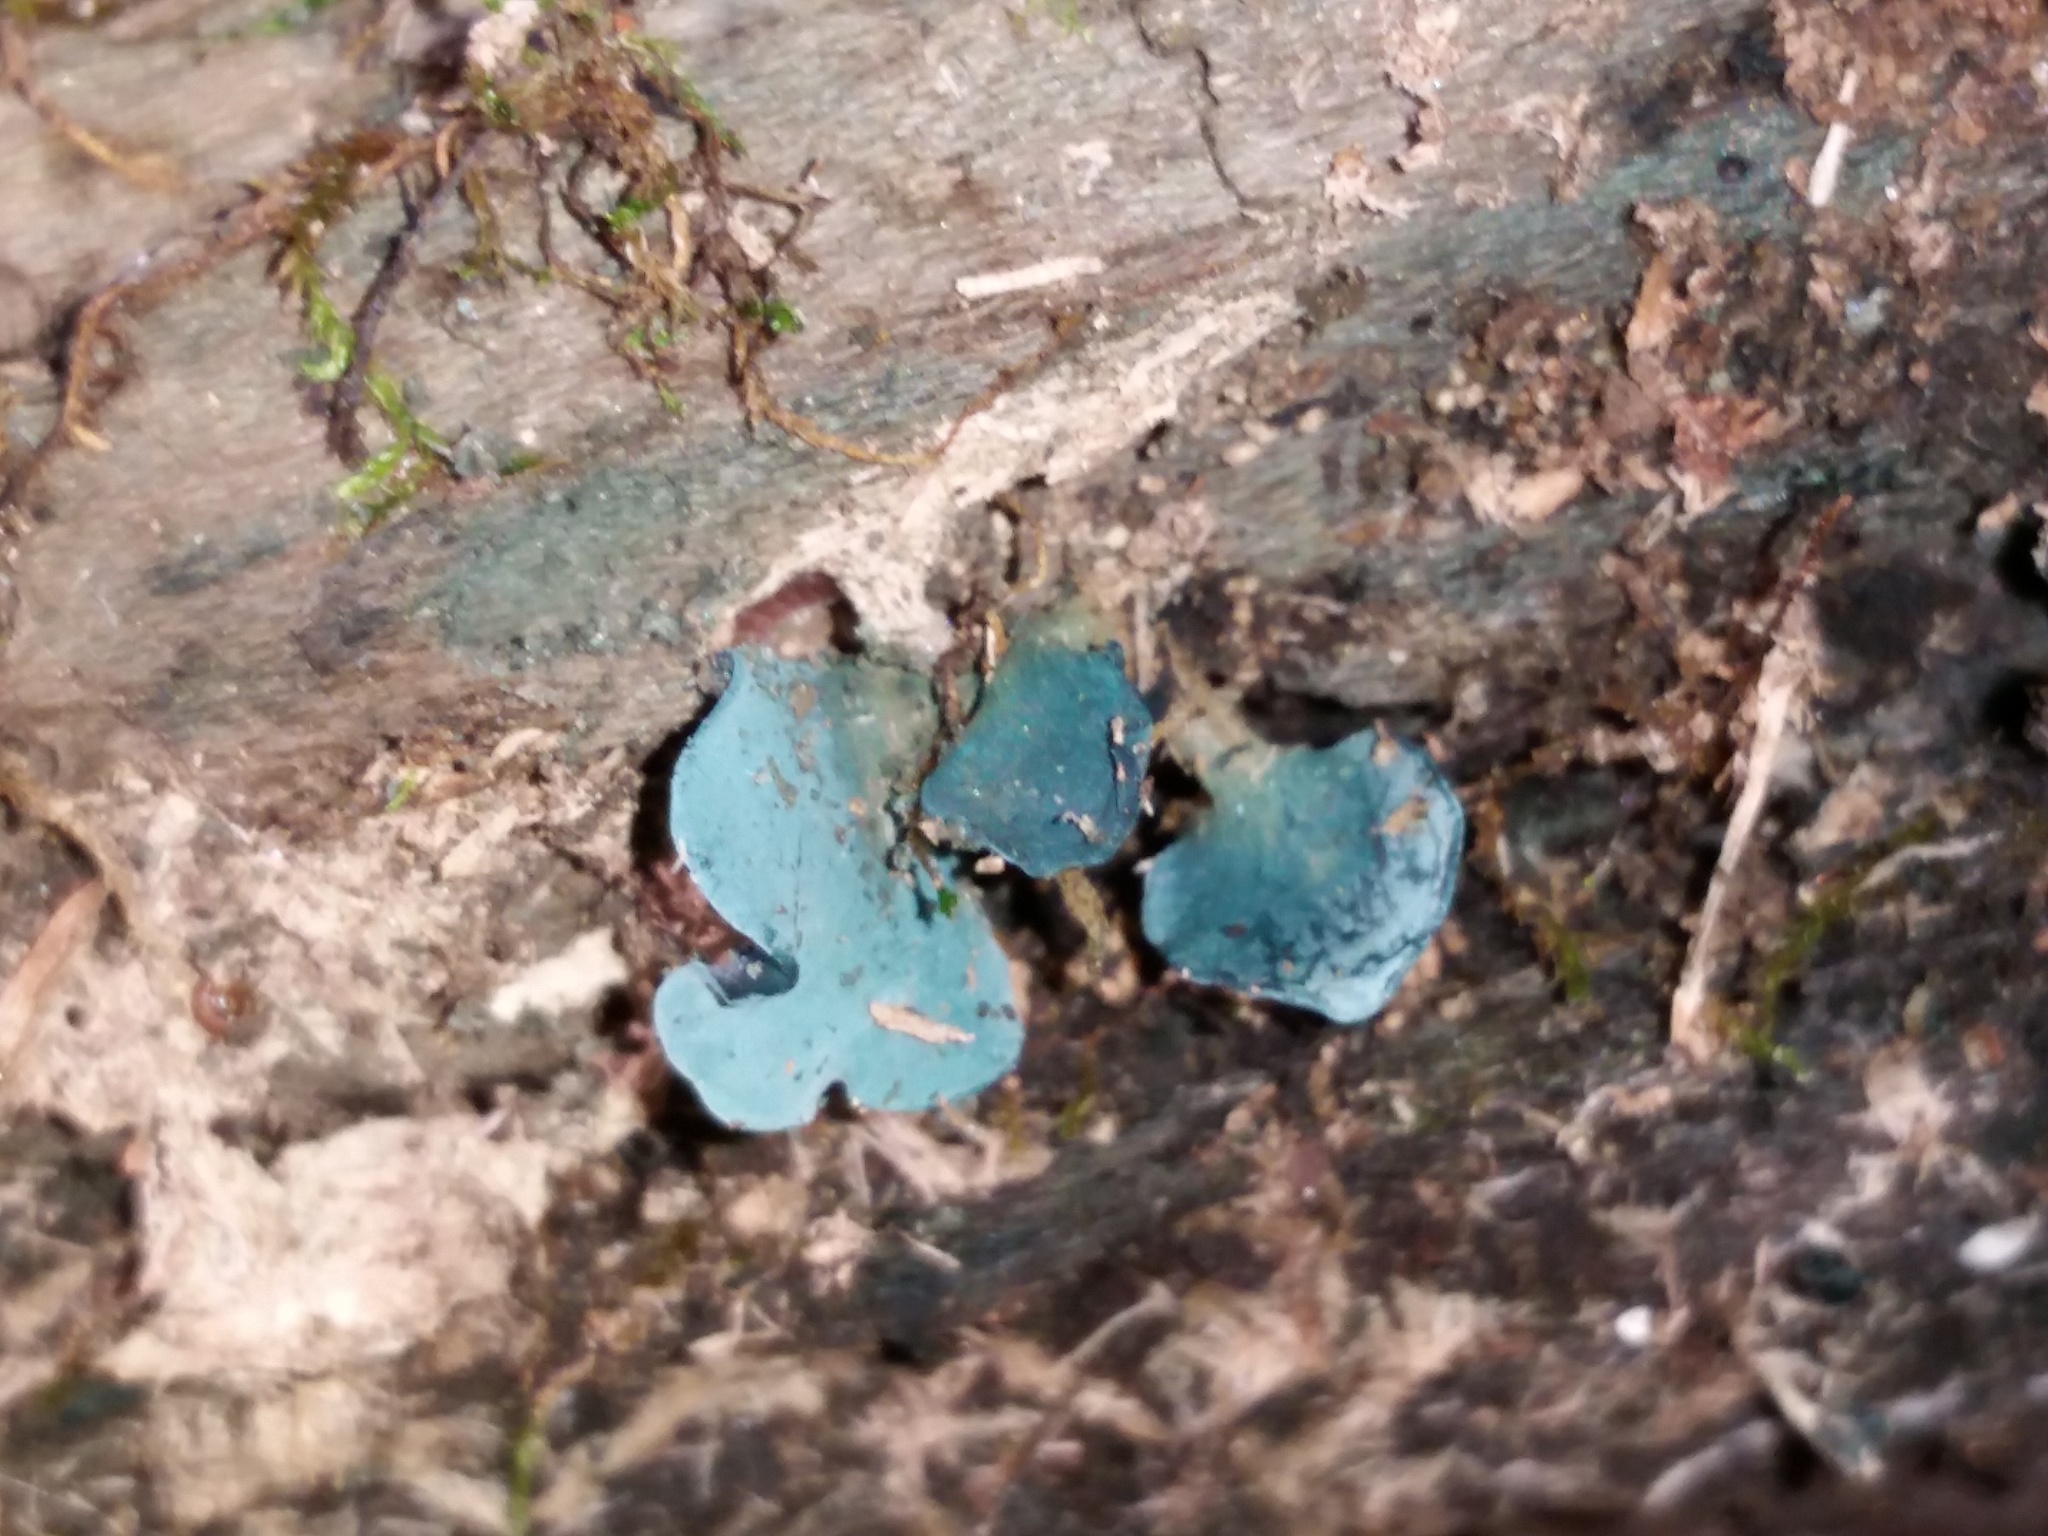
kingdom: Fungi
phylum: Ascomycota
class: Leotiomycetes
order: Helotiales
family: Chlorociboriaceae
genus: Chlorociboria
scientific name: Chlorociboria aeruginascens
